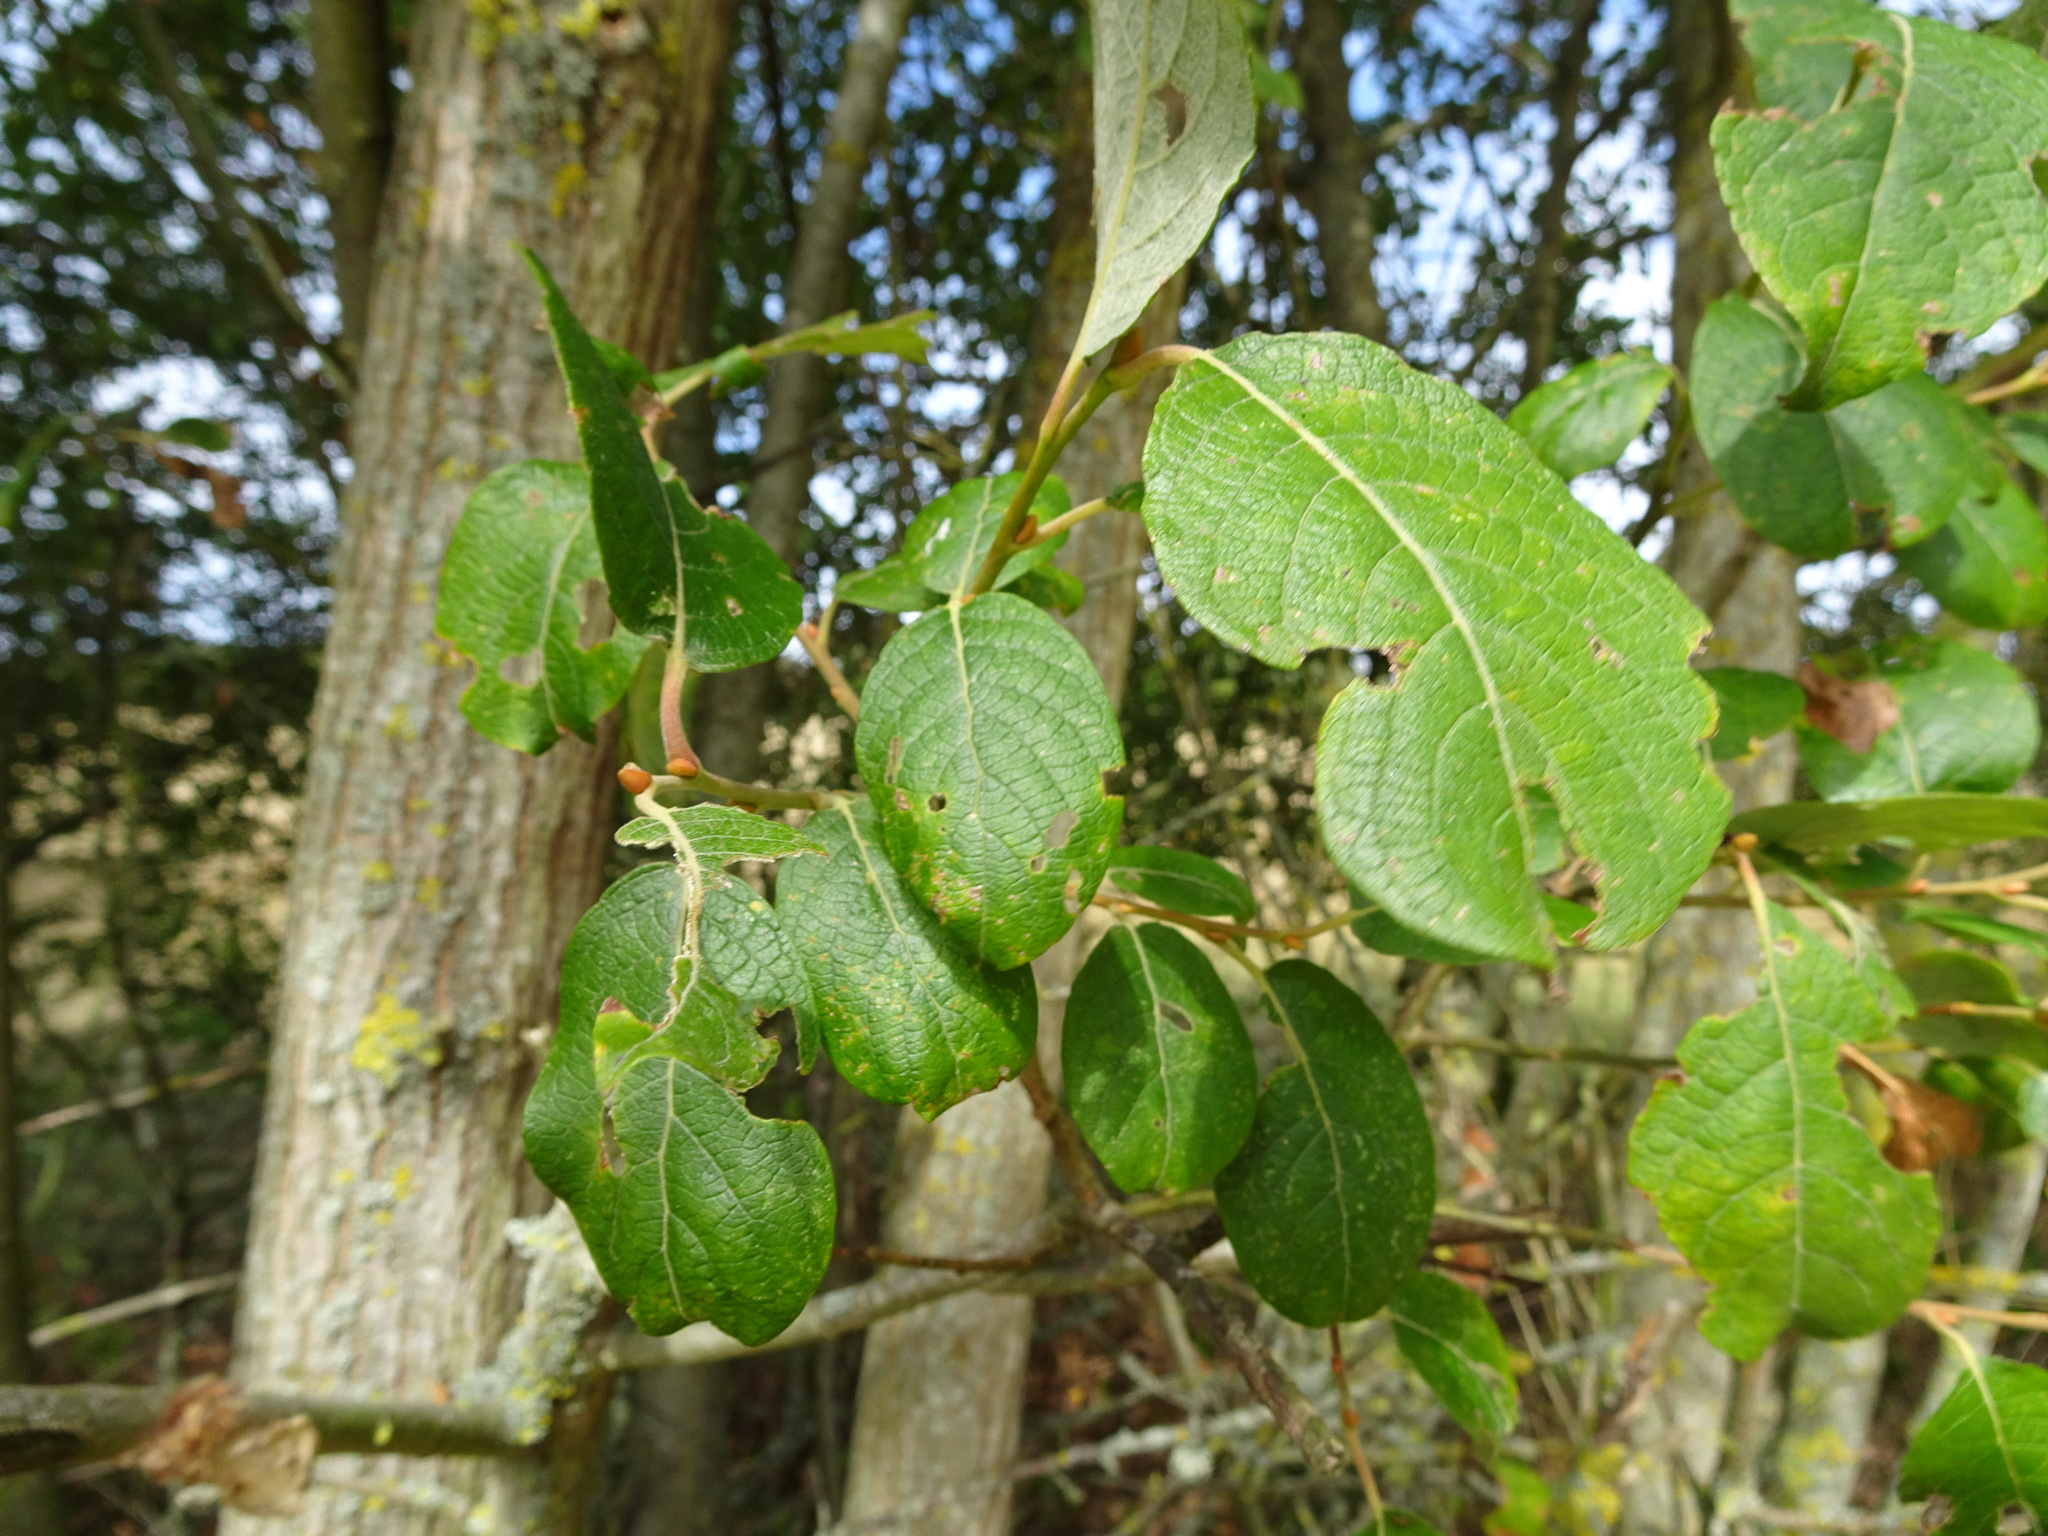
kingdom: Plantae
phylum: Tracheophyta
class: Magnoliopsida
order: Malpighiales
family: Salicaceae
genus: Salix
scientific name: Salix caprea
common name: Goat willow
